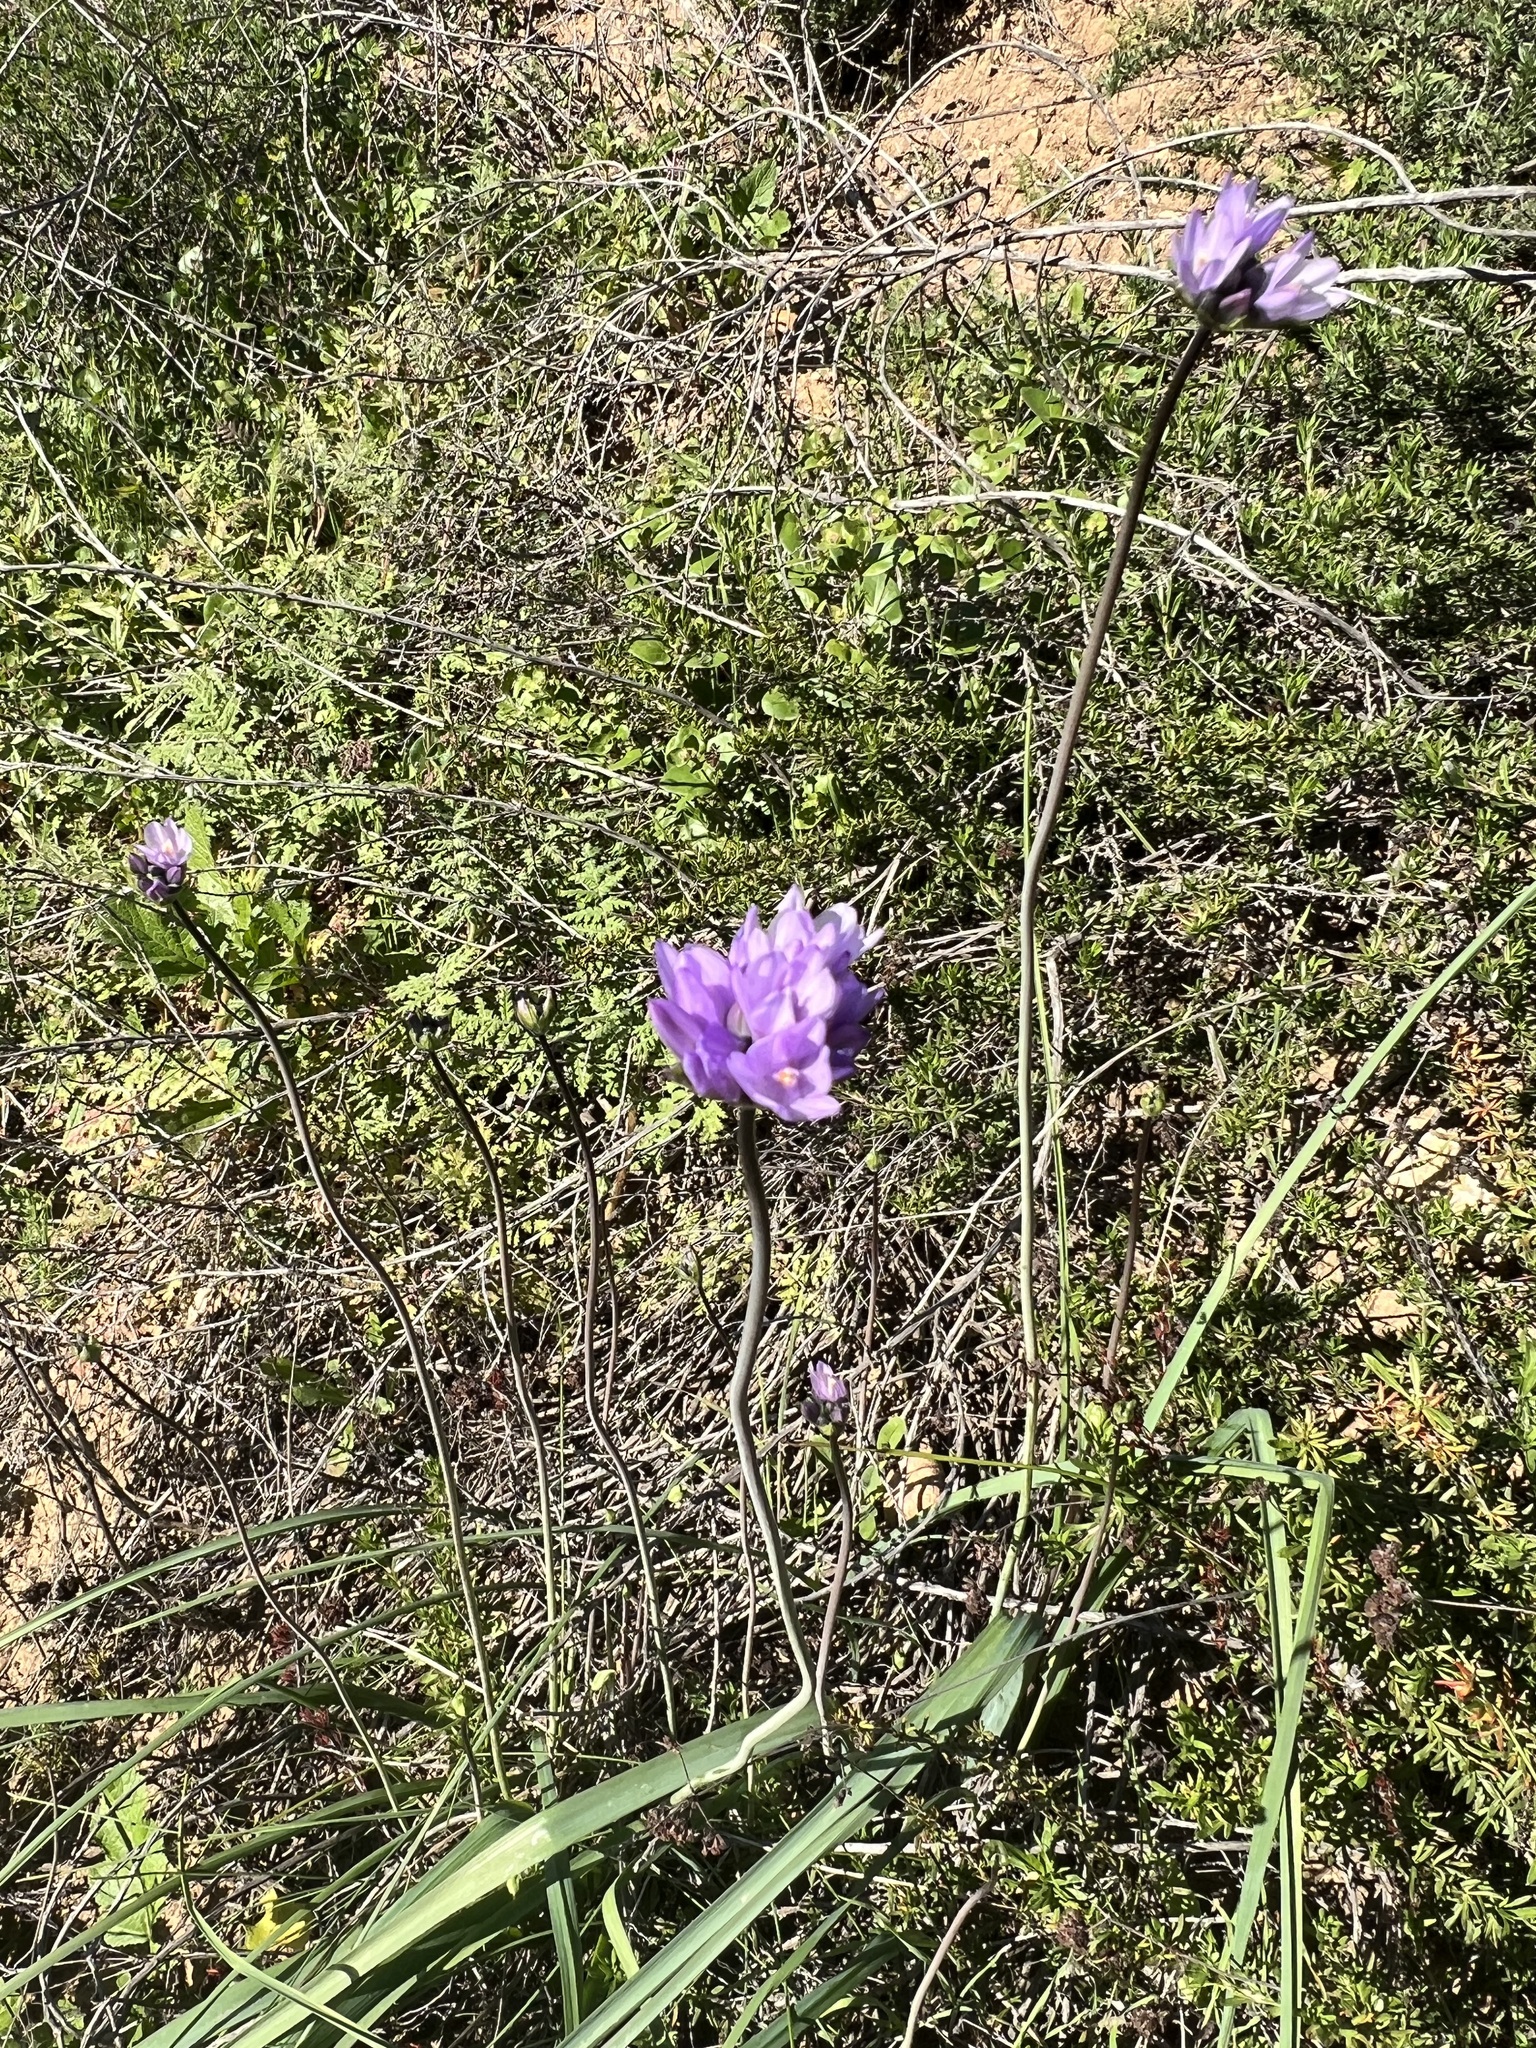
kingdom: Plantae
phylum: Tracheophyta
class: Liliopsida
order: Asparagales
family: Asparagaceae
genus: Dipterostemon
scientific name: Dipterostemon capitatus
